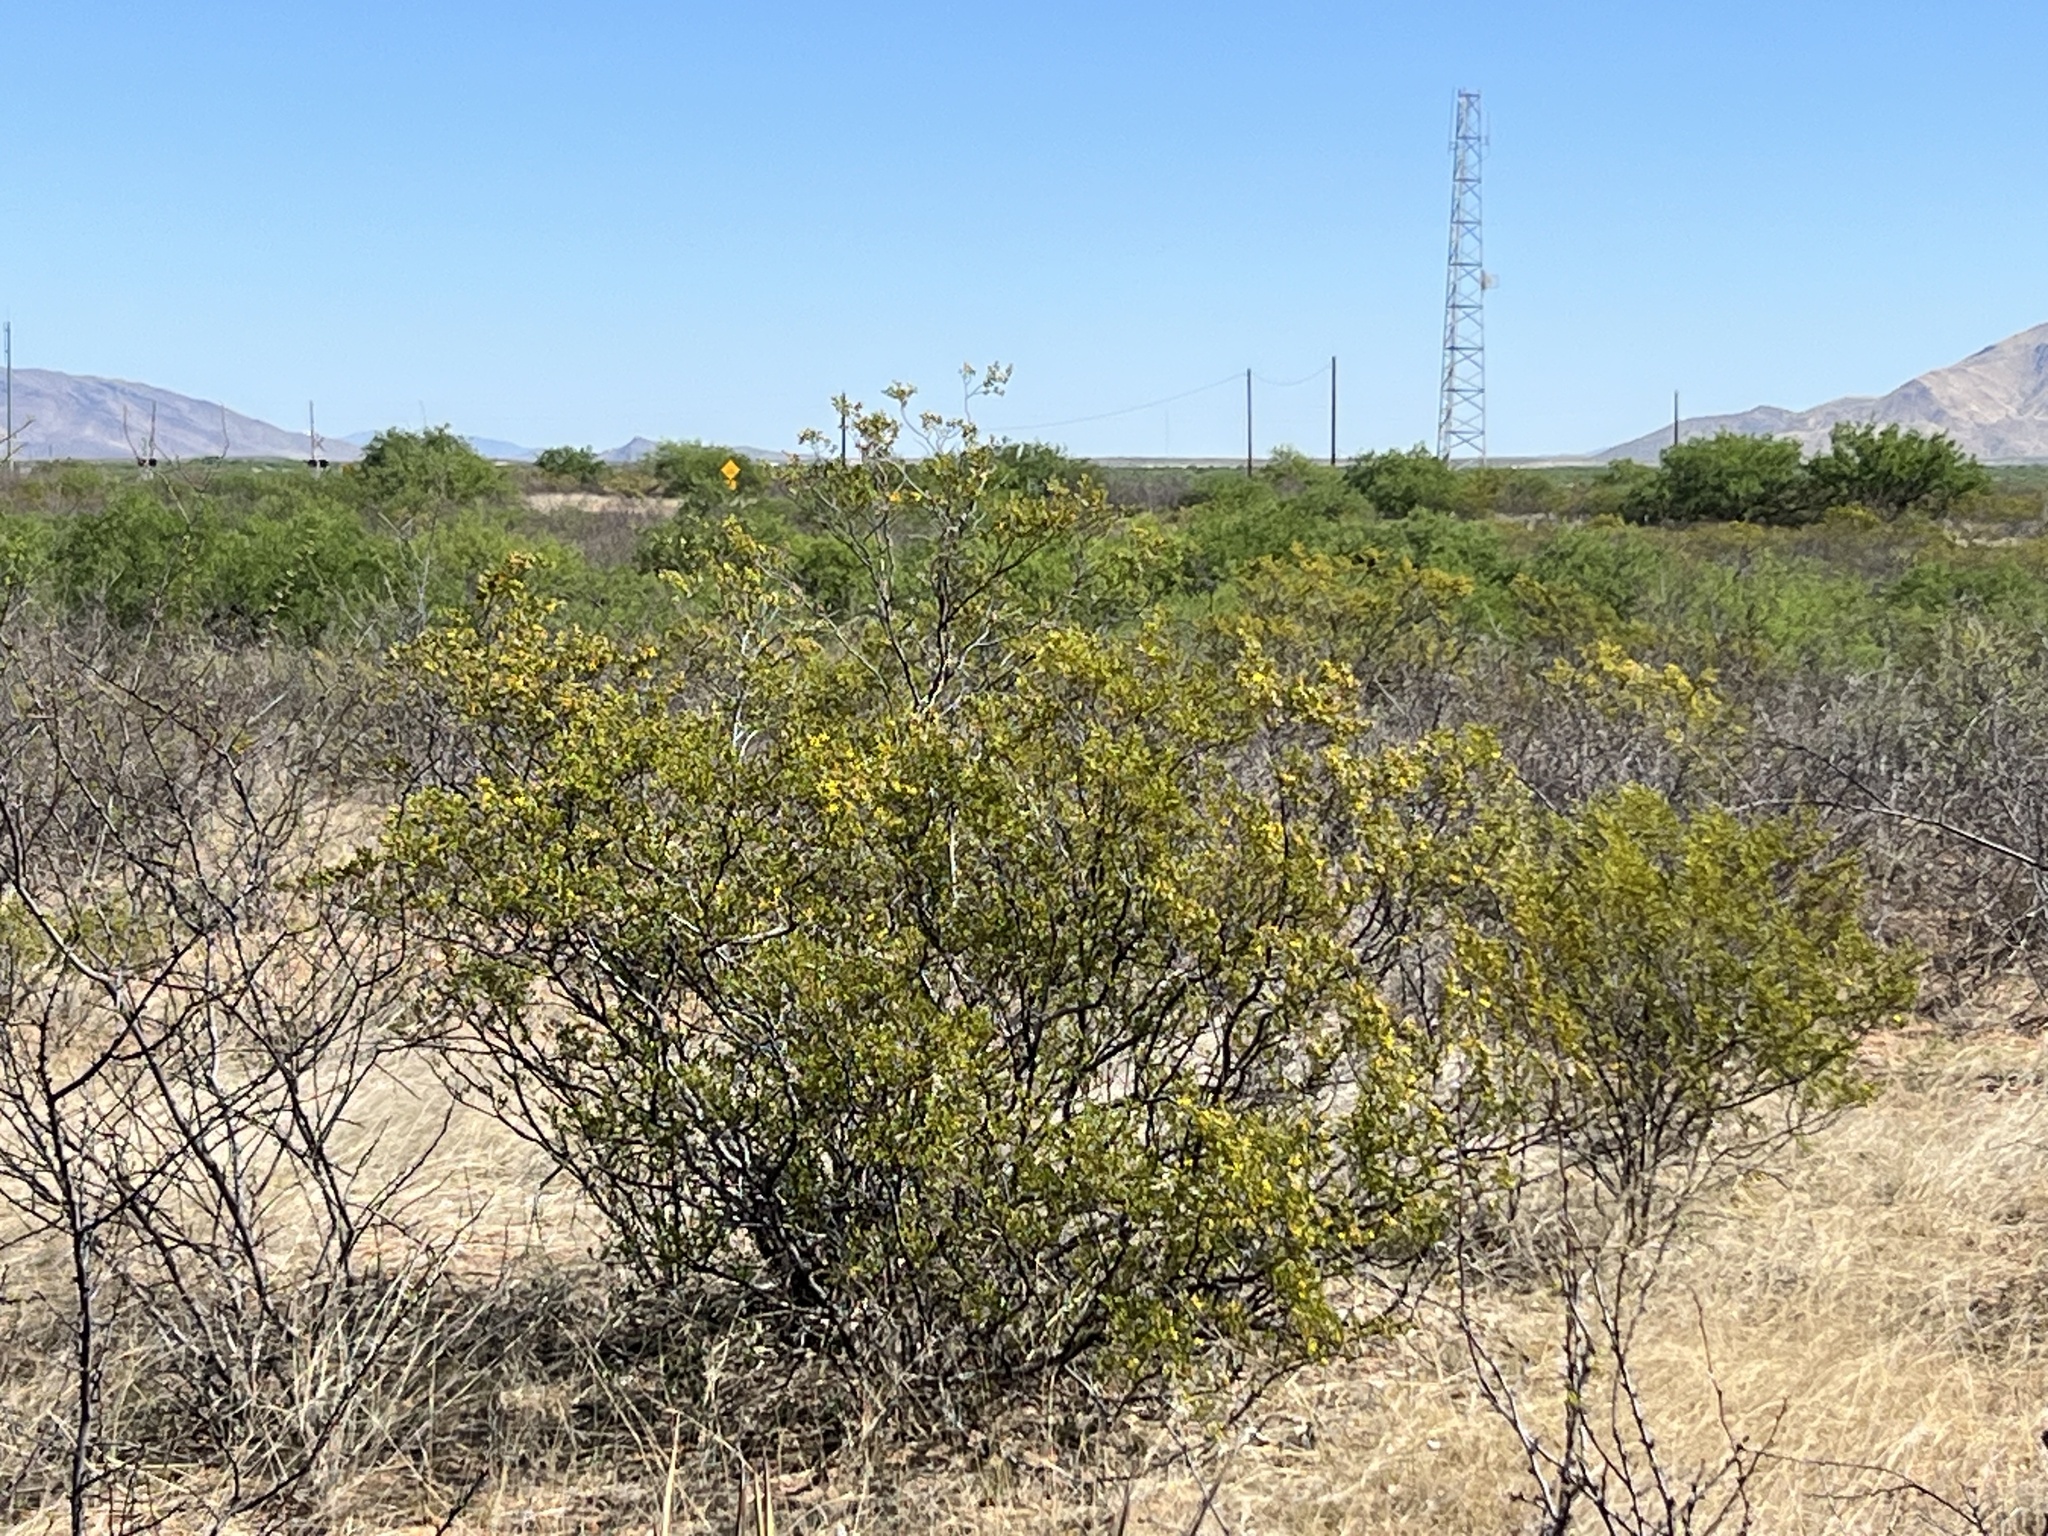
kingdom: Plantae
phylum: Tracheophyta
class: Magnoliopsida
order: Zygophyllales
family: Zygophyllaceae
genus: Larrea
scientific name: Larrea tridentata
